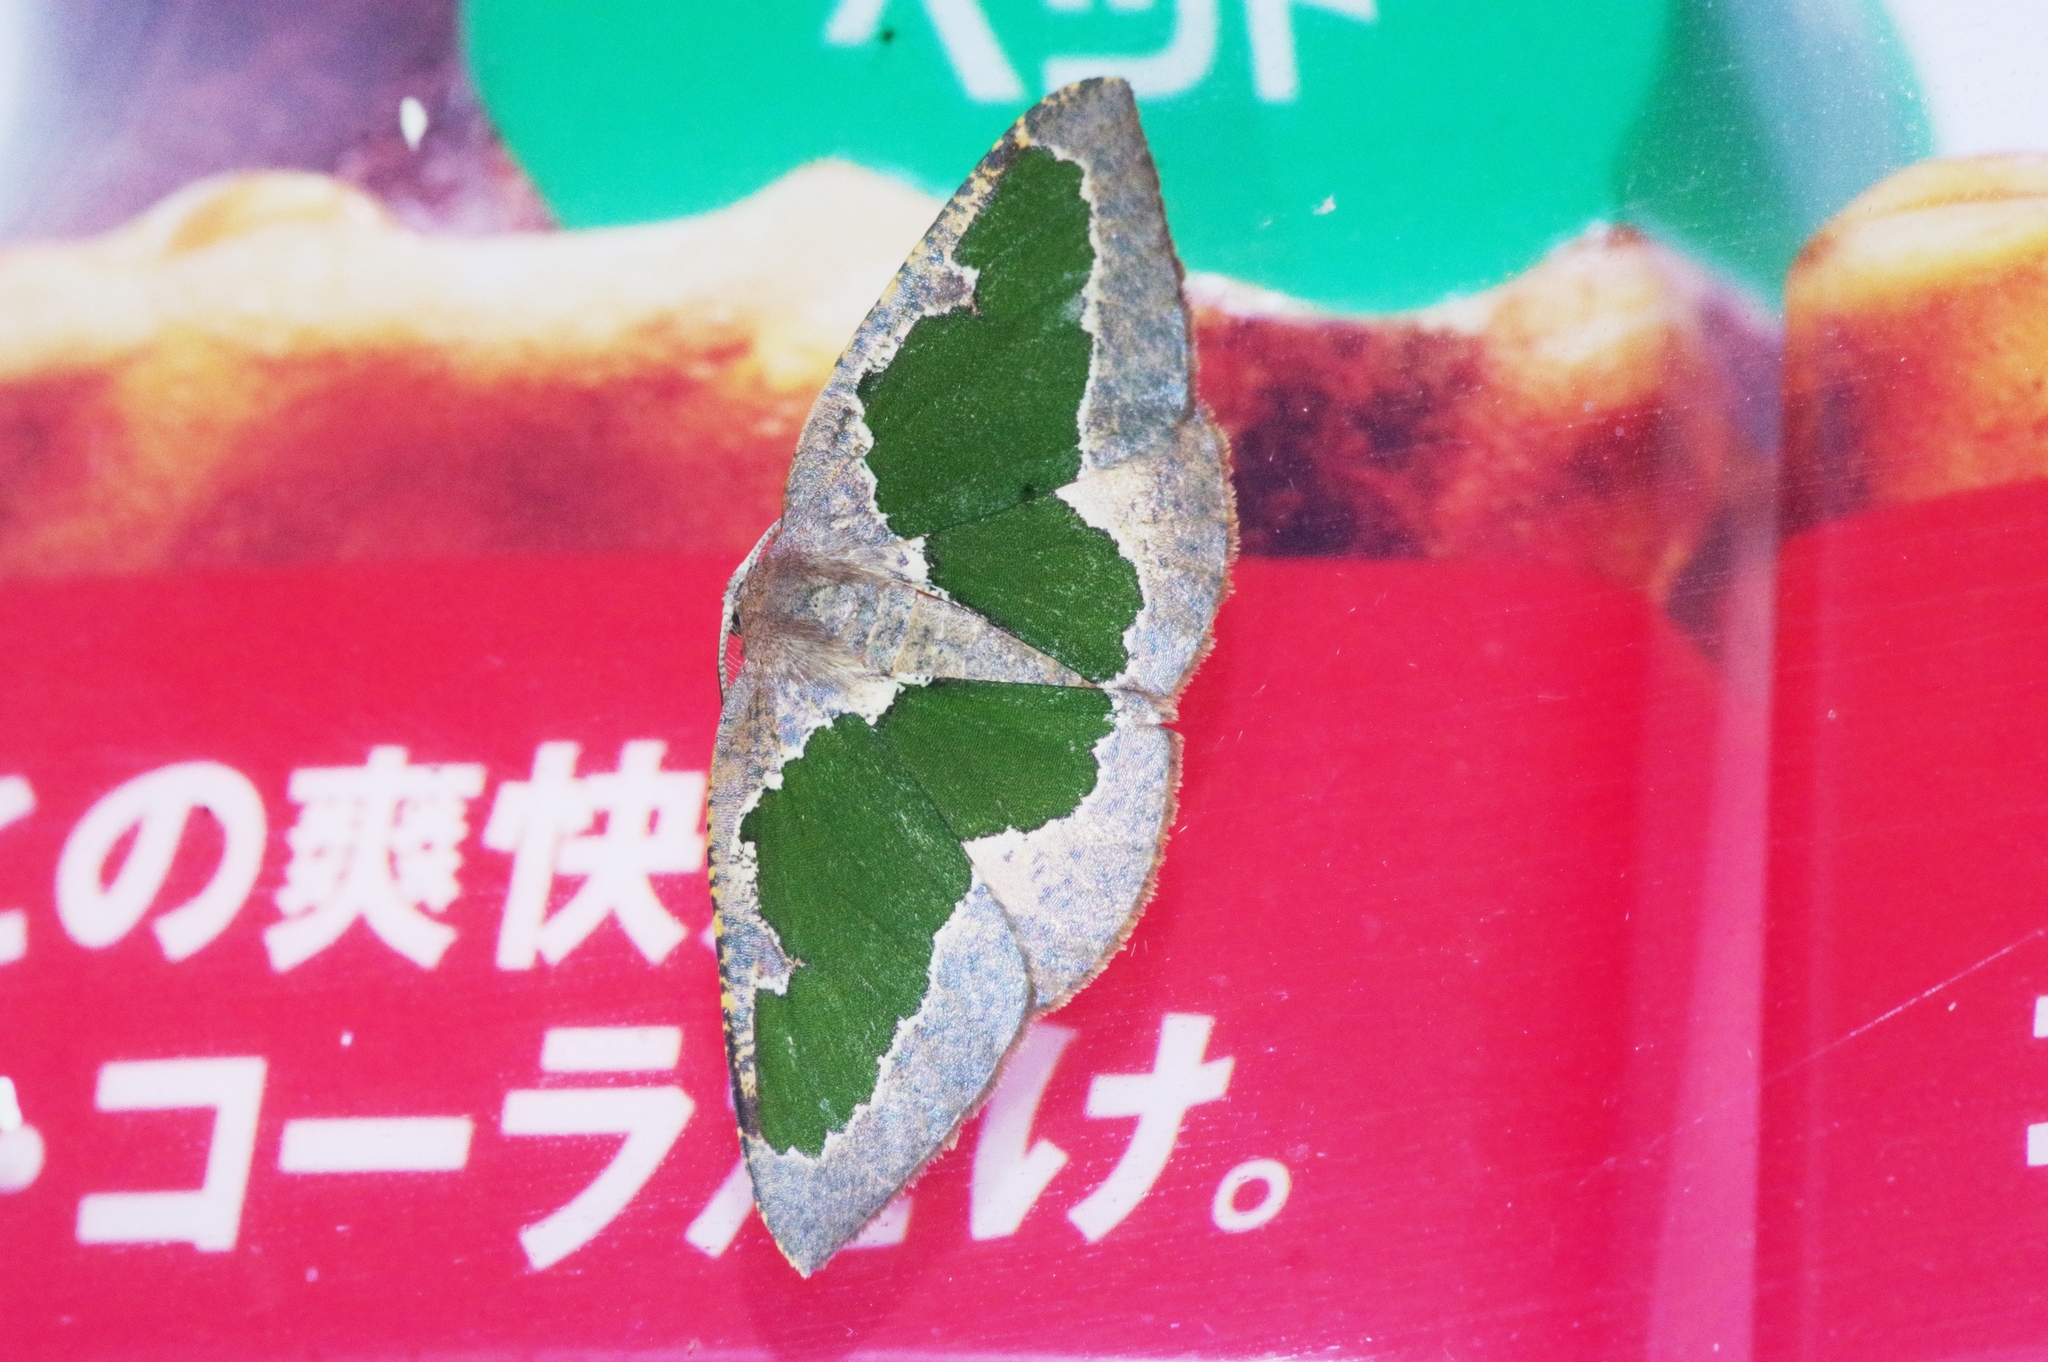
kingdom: Animalia
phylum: Arthropoda
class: Insecta
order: Lepidoptera
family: Geometridae
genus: Celenna
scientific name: Celenna festivaria
